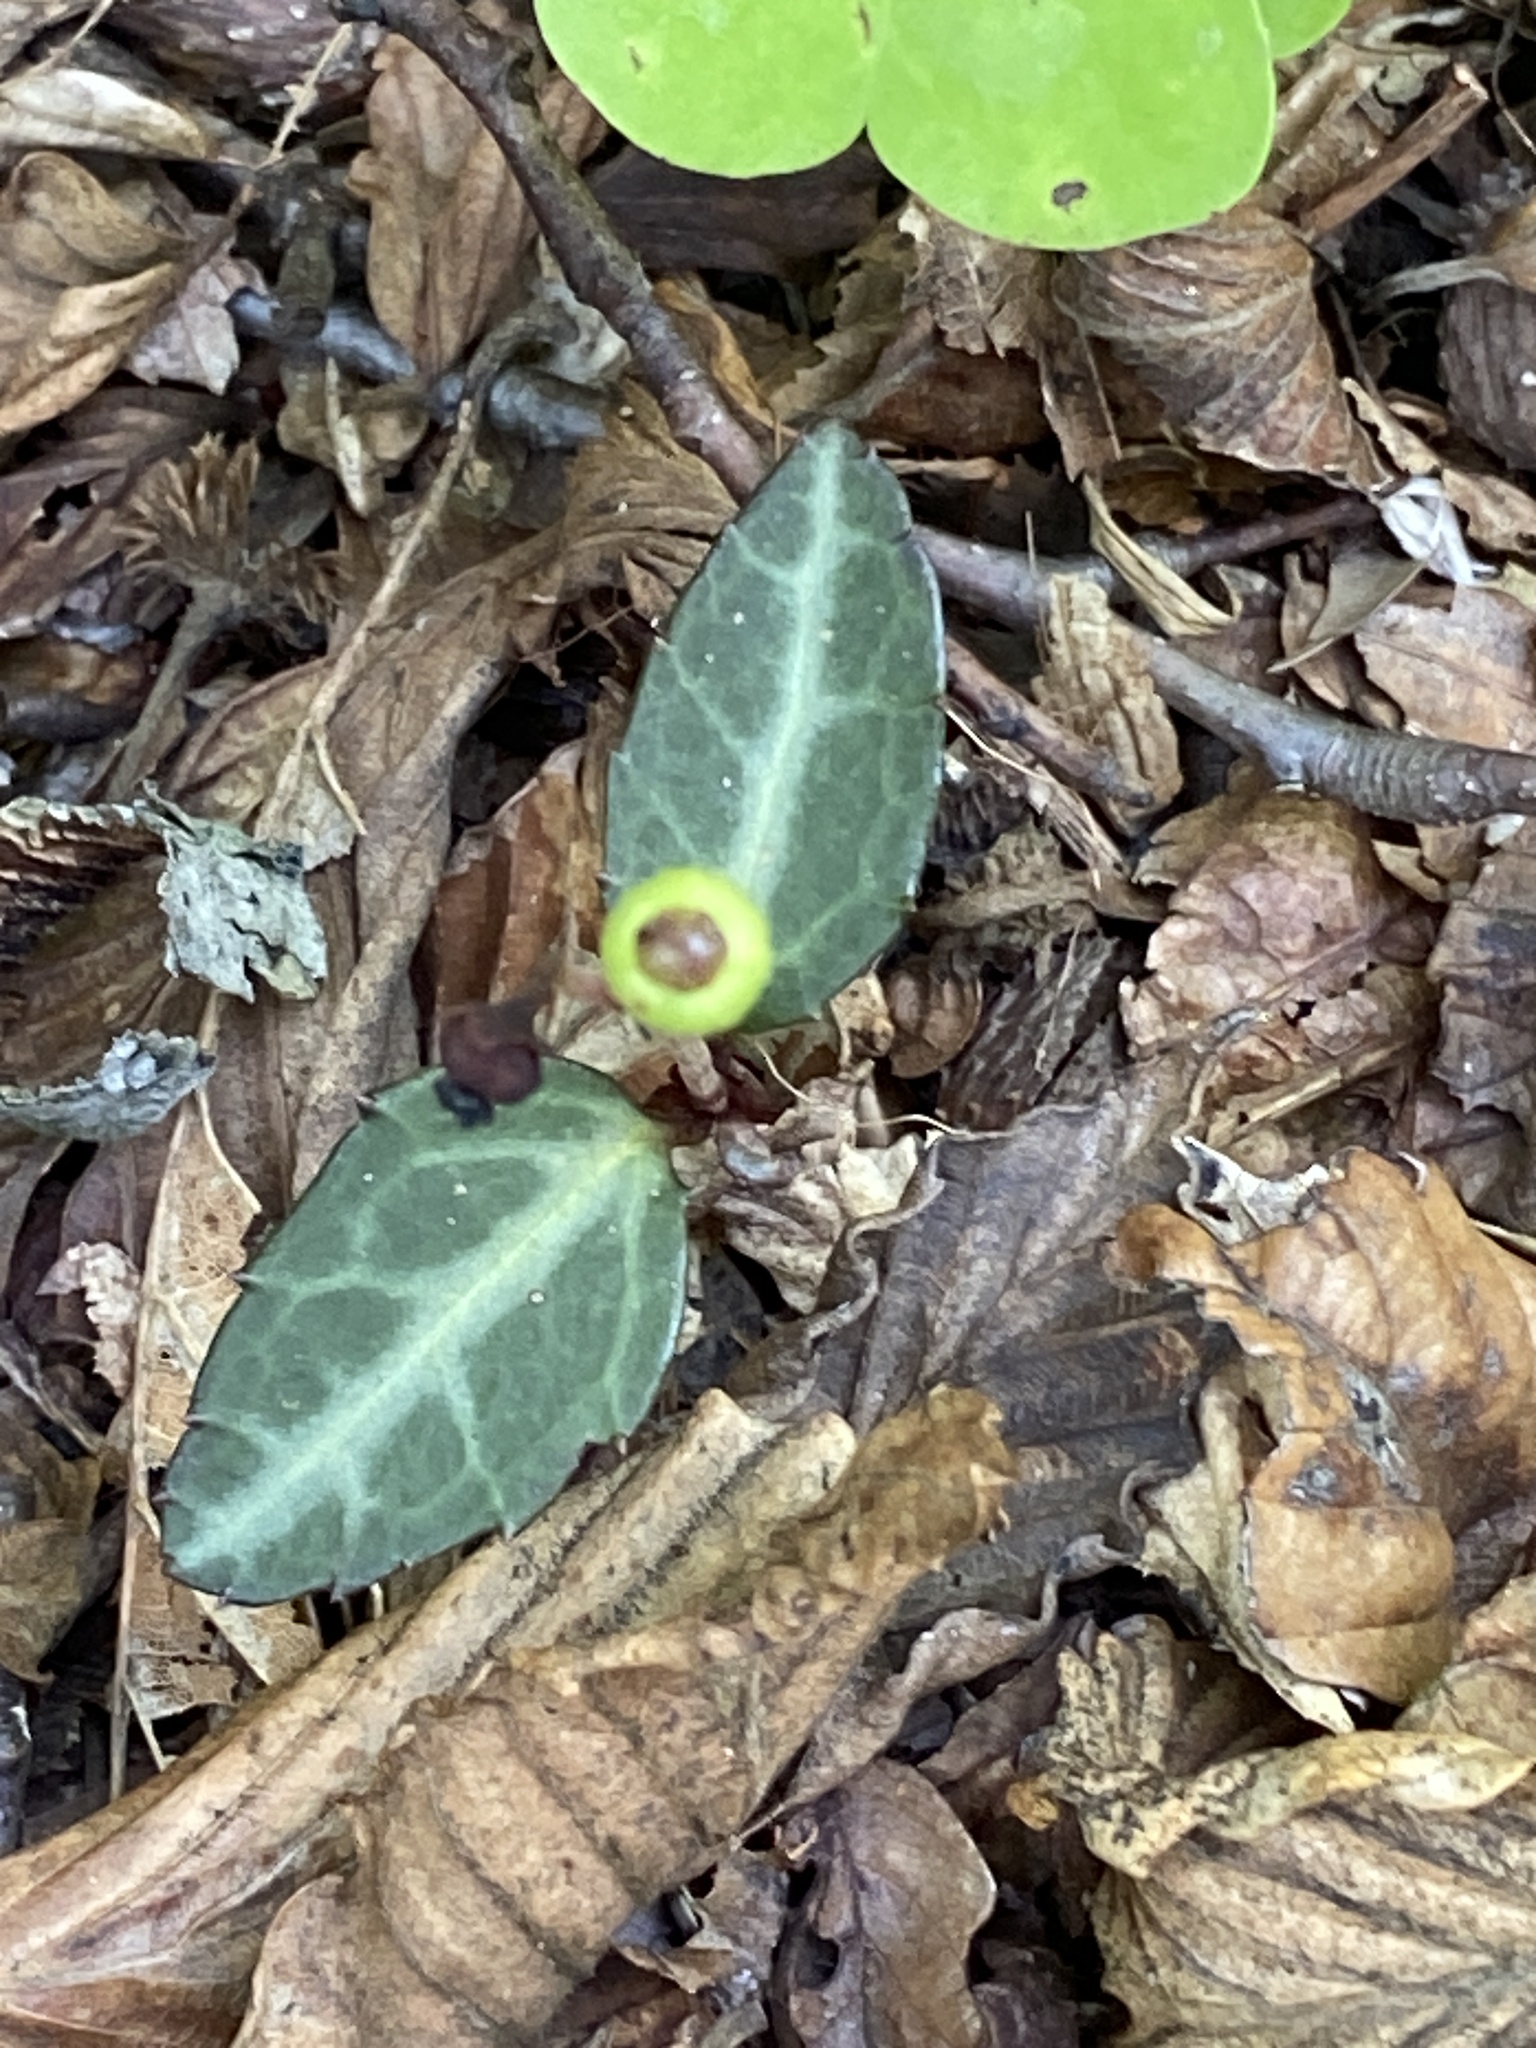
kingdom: Plantae
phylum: Tracheophyta
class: Magnoliopsida
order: Ericales
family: Ericaceae
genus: Chimaphila
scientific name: Chimaphila maculata
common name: Spotted pipsissewa
